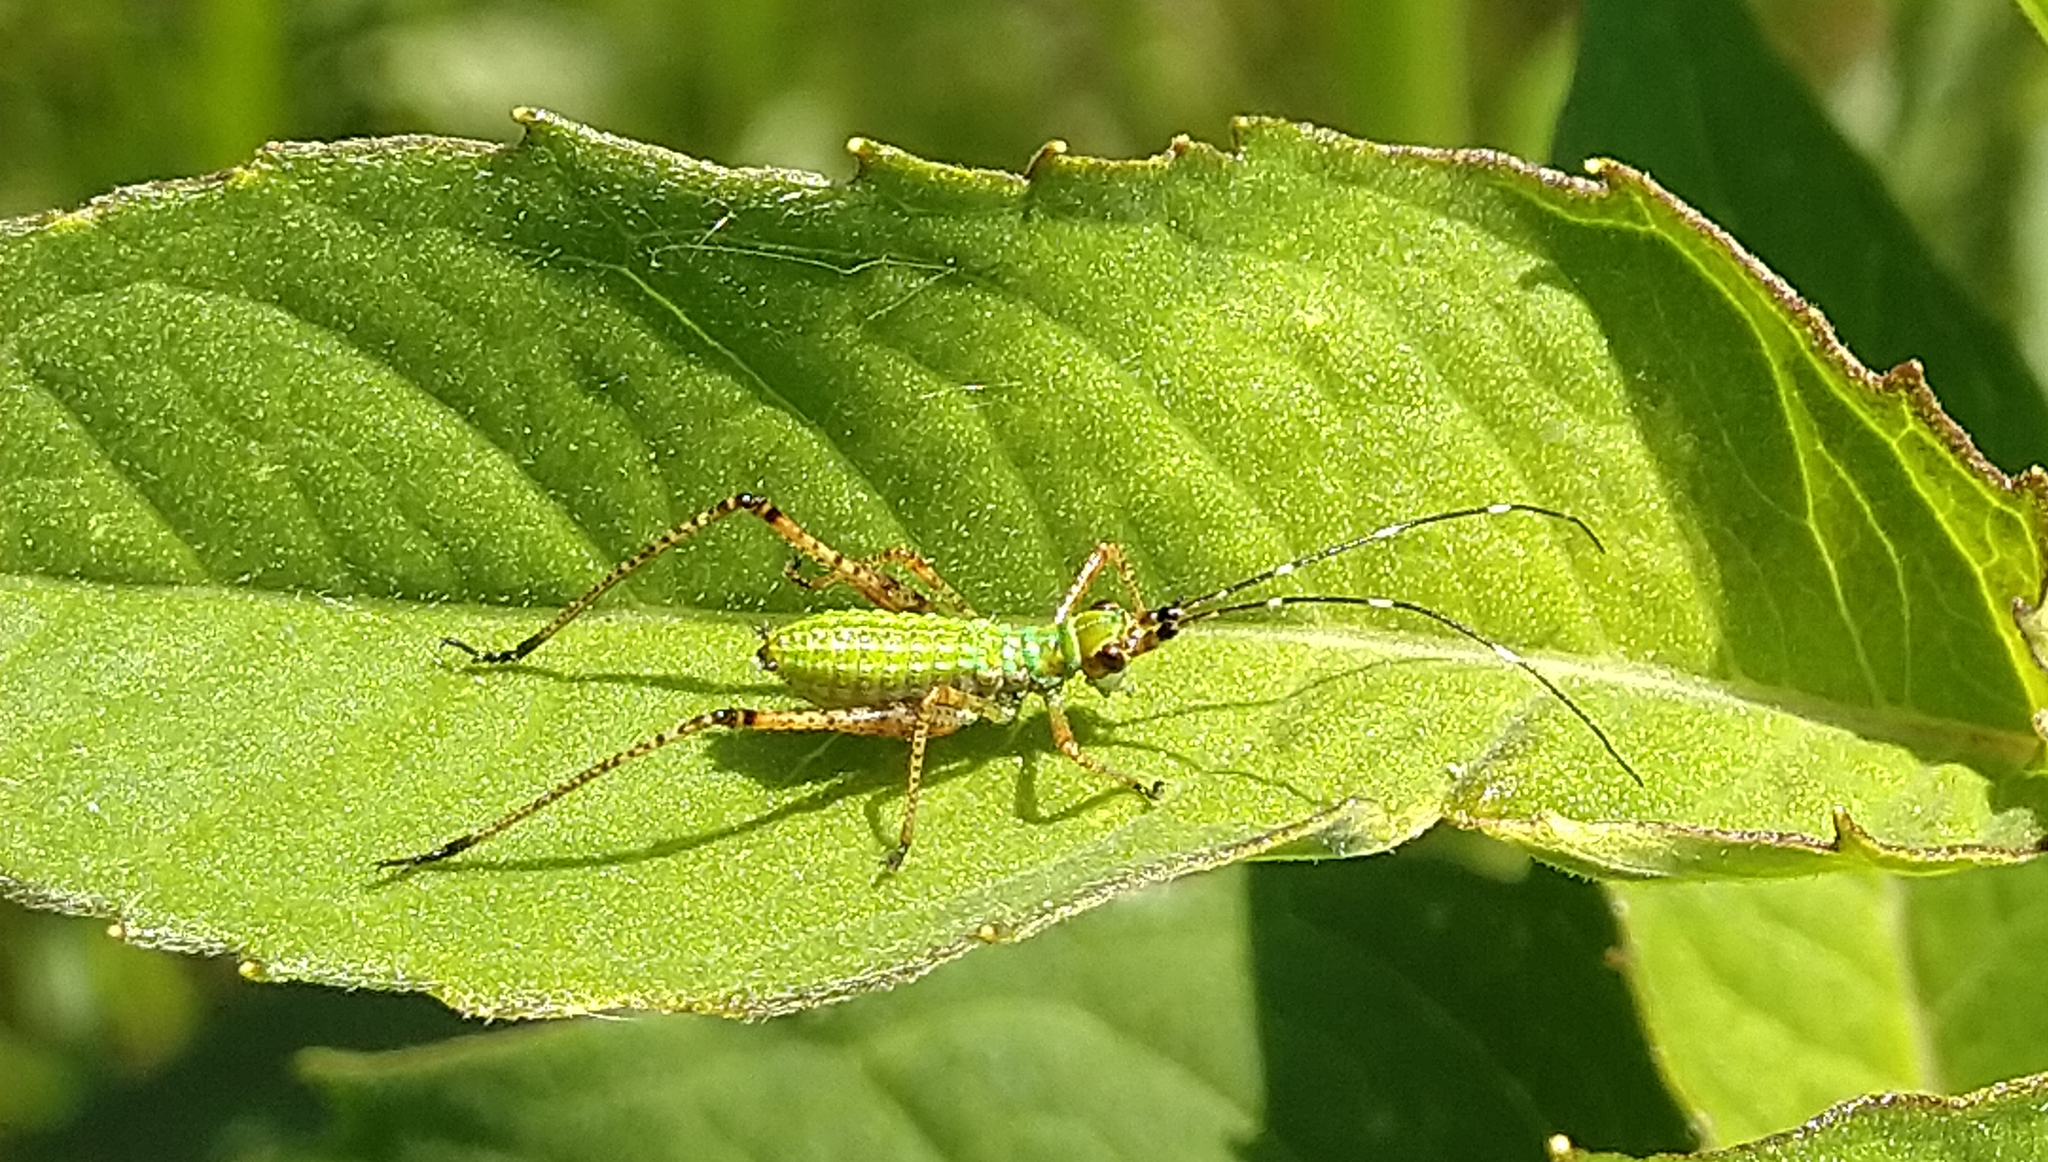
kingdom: Animalia
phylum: Arthropoda
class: Insecta
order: Orthoptera
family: Tettigoniidae
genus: Scudderia
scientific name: Scudderia
